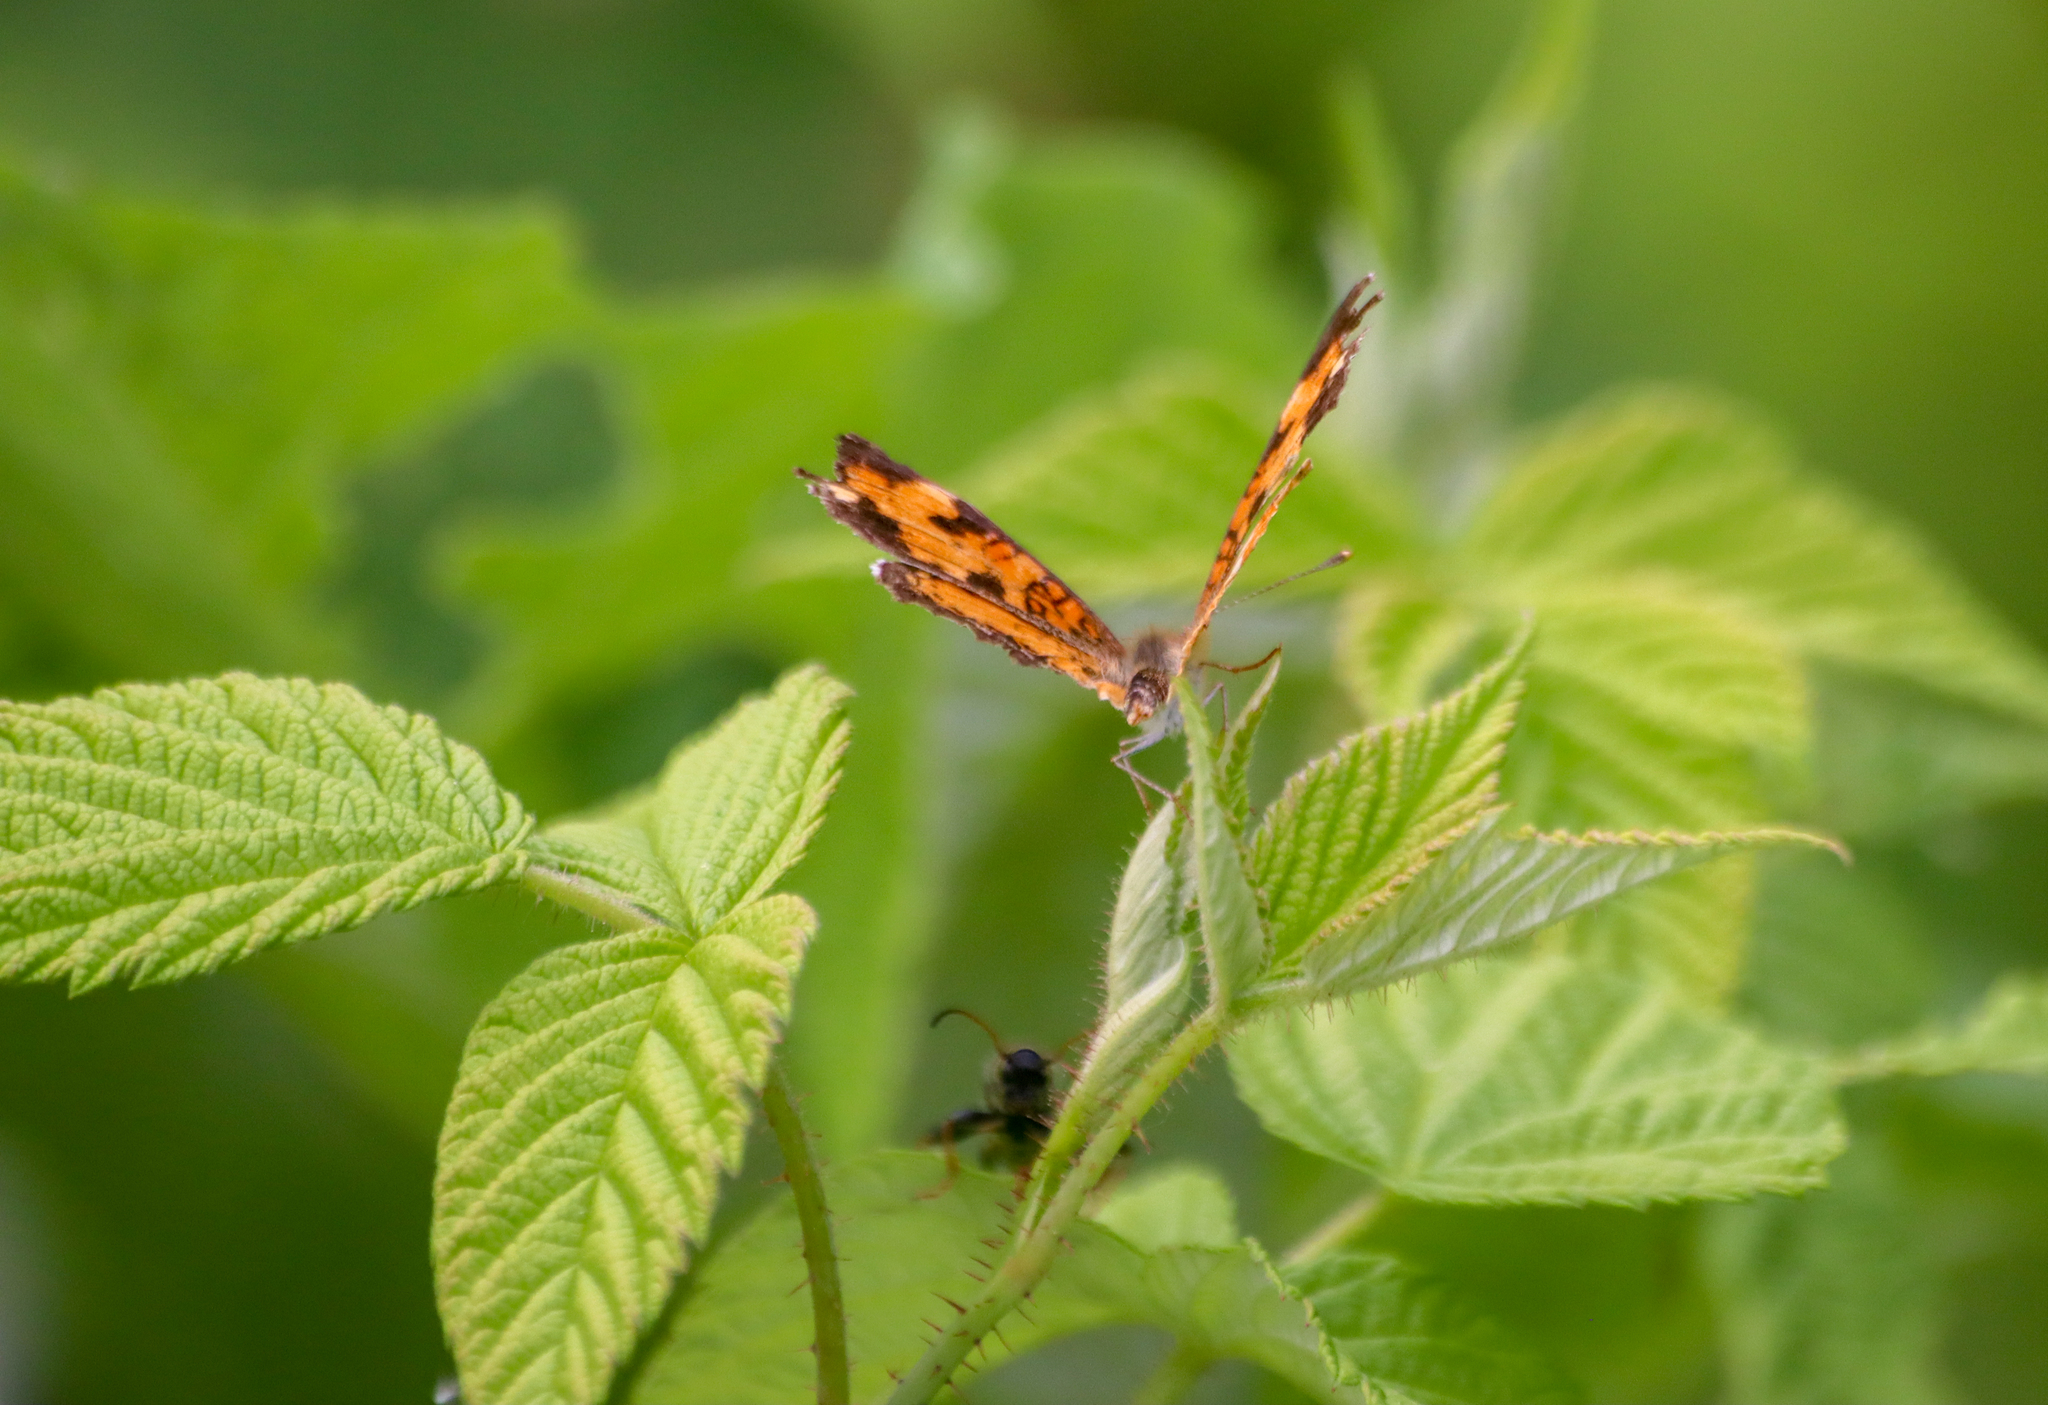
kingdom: Animalia
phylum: Arthropoda
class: Insecta
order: Lepidoptera
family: Nymphalidae
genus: Phyciodes
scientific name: Phyciodes tharos
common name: Pearl crescent
